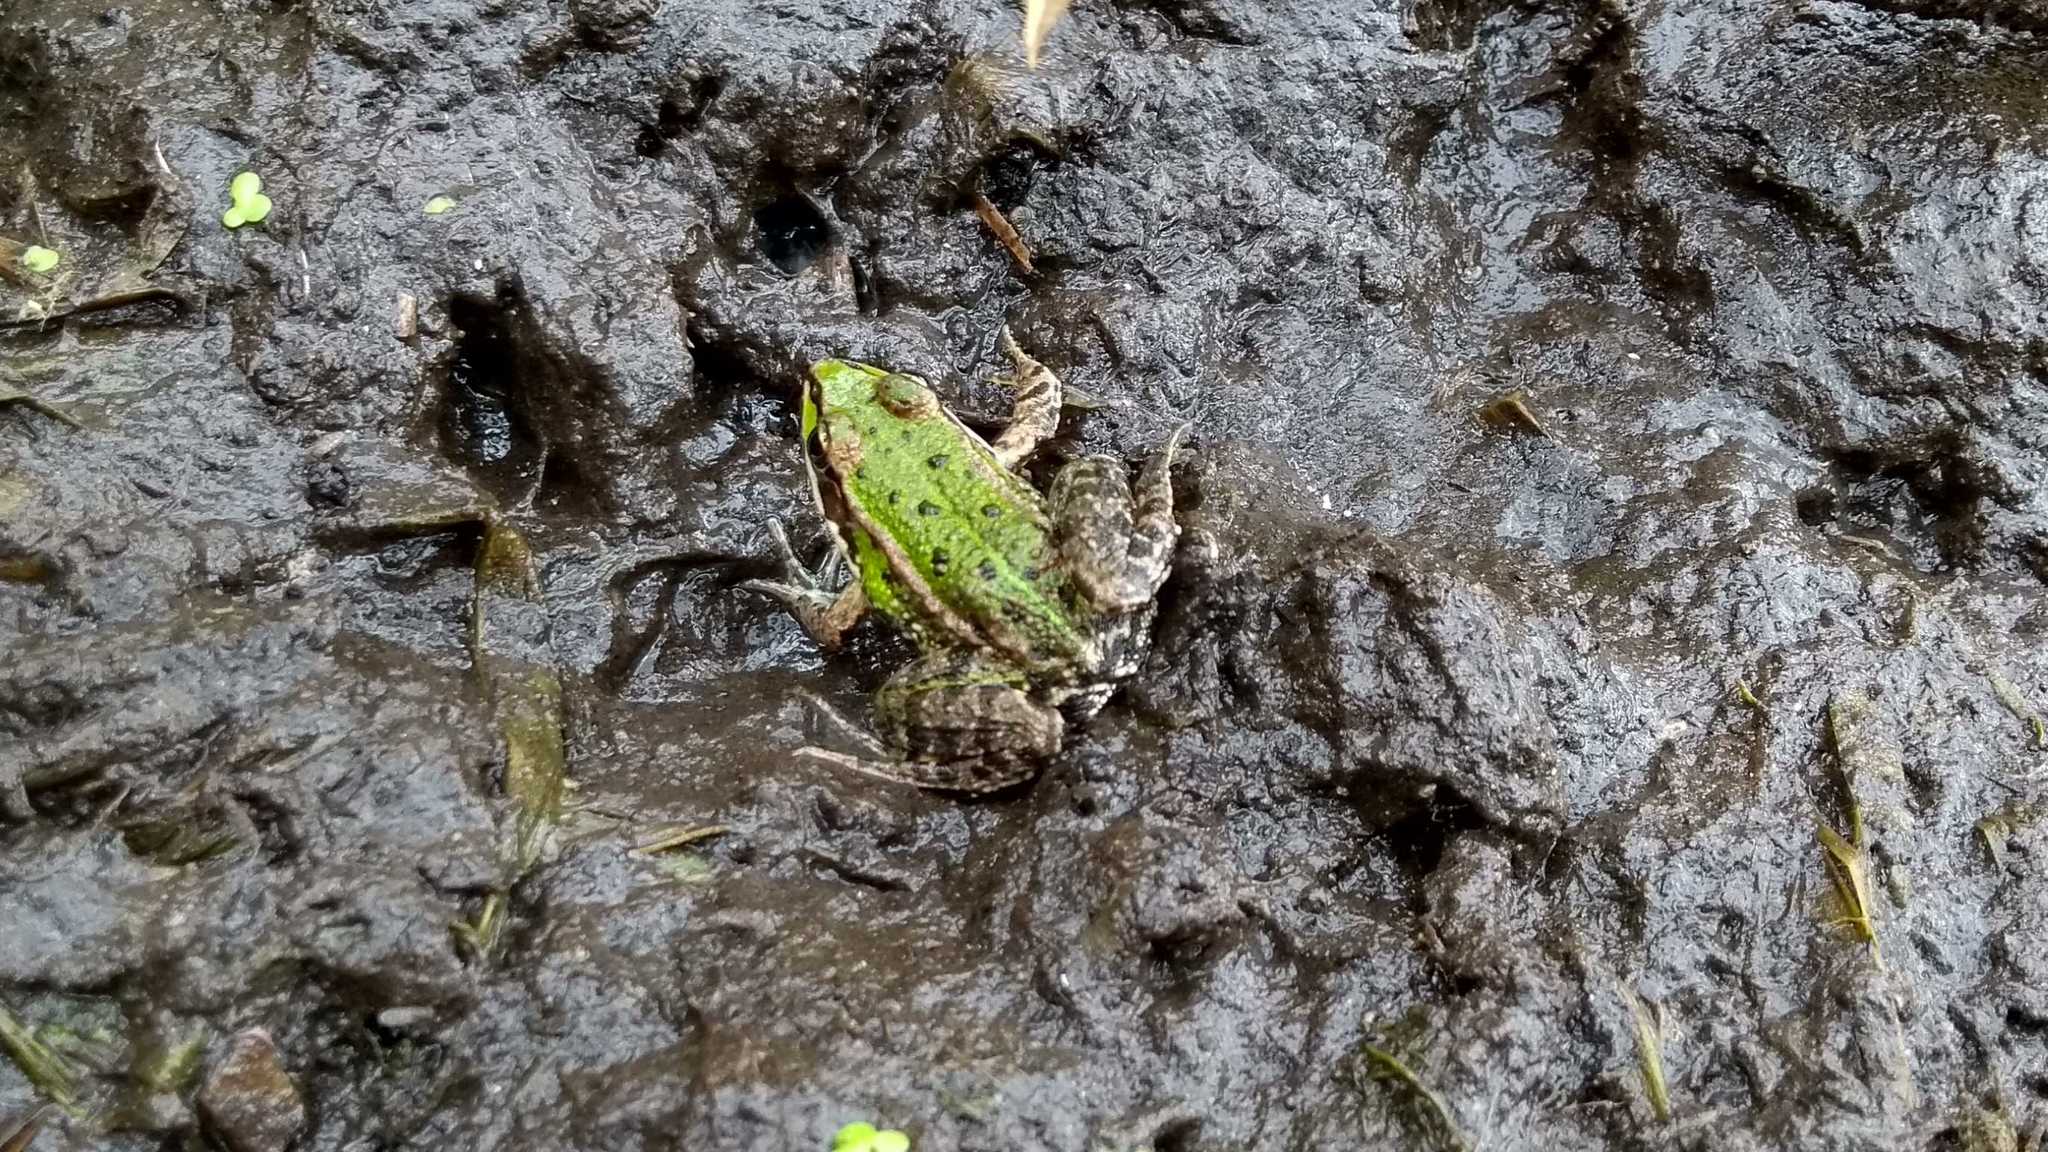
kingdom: Animalia
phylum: Chordata
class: Amphibia
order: Anura
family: Ranidae
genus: Pelophylax
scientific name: Pelophylax
